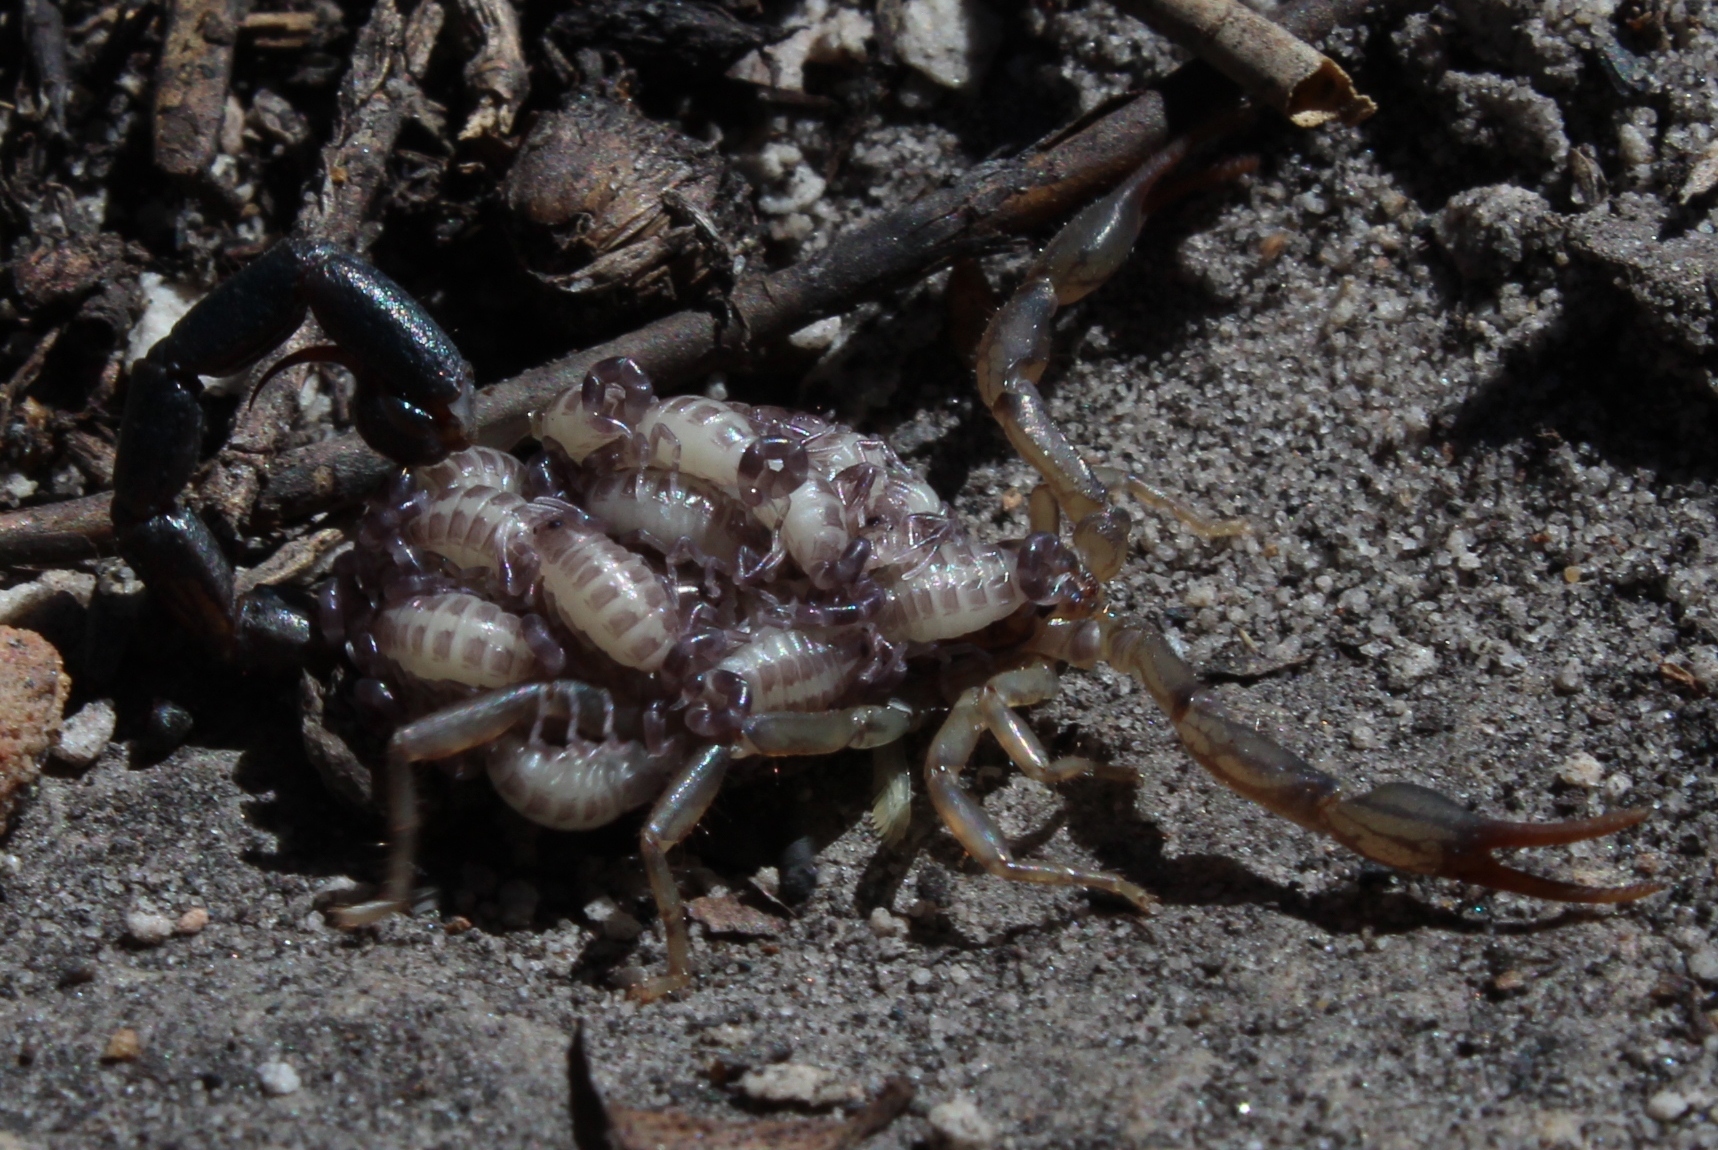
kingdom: Animalia
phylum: Arthropoda
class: Arachnida
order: Scorpiones
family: Buthidae
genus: Uroplectes
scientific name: Uroplectes lineatus
